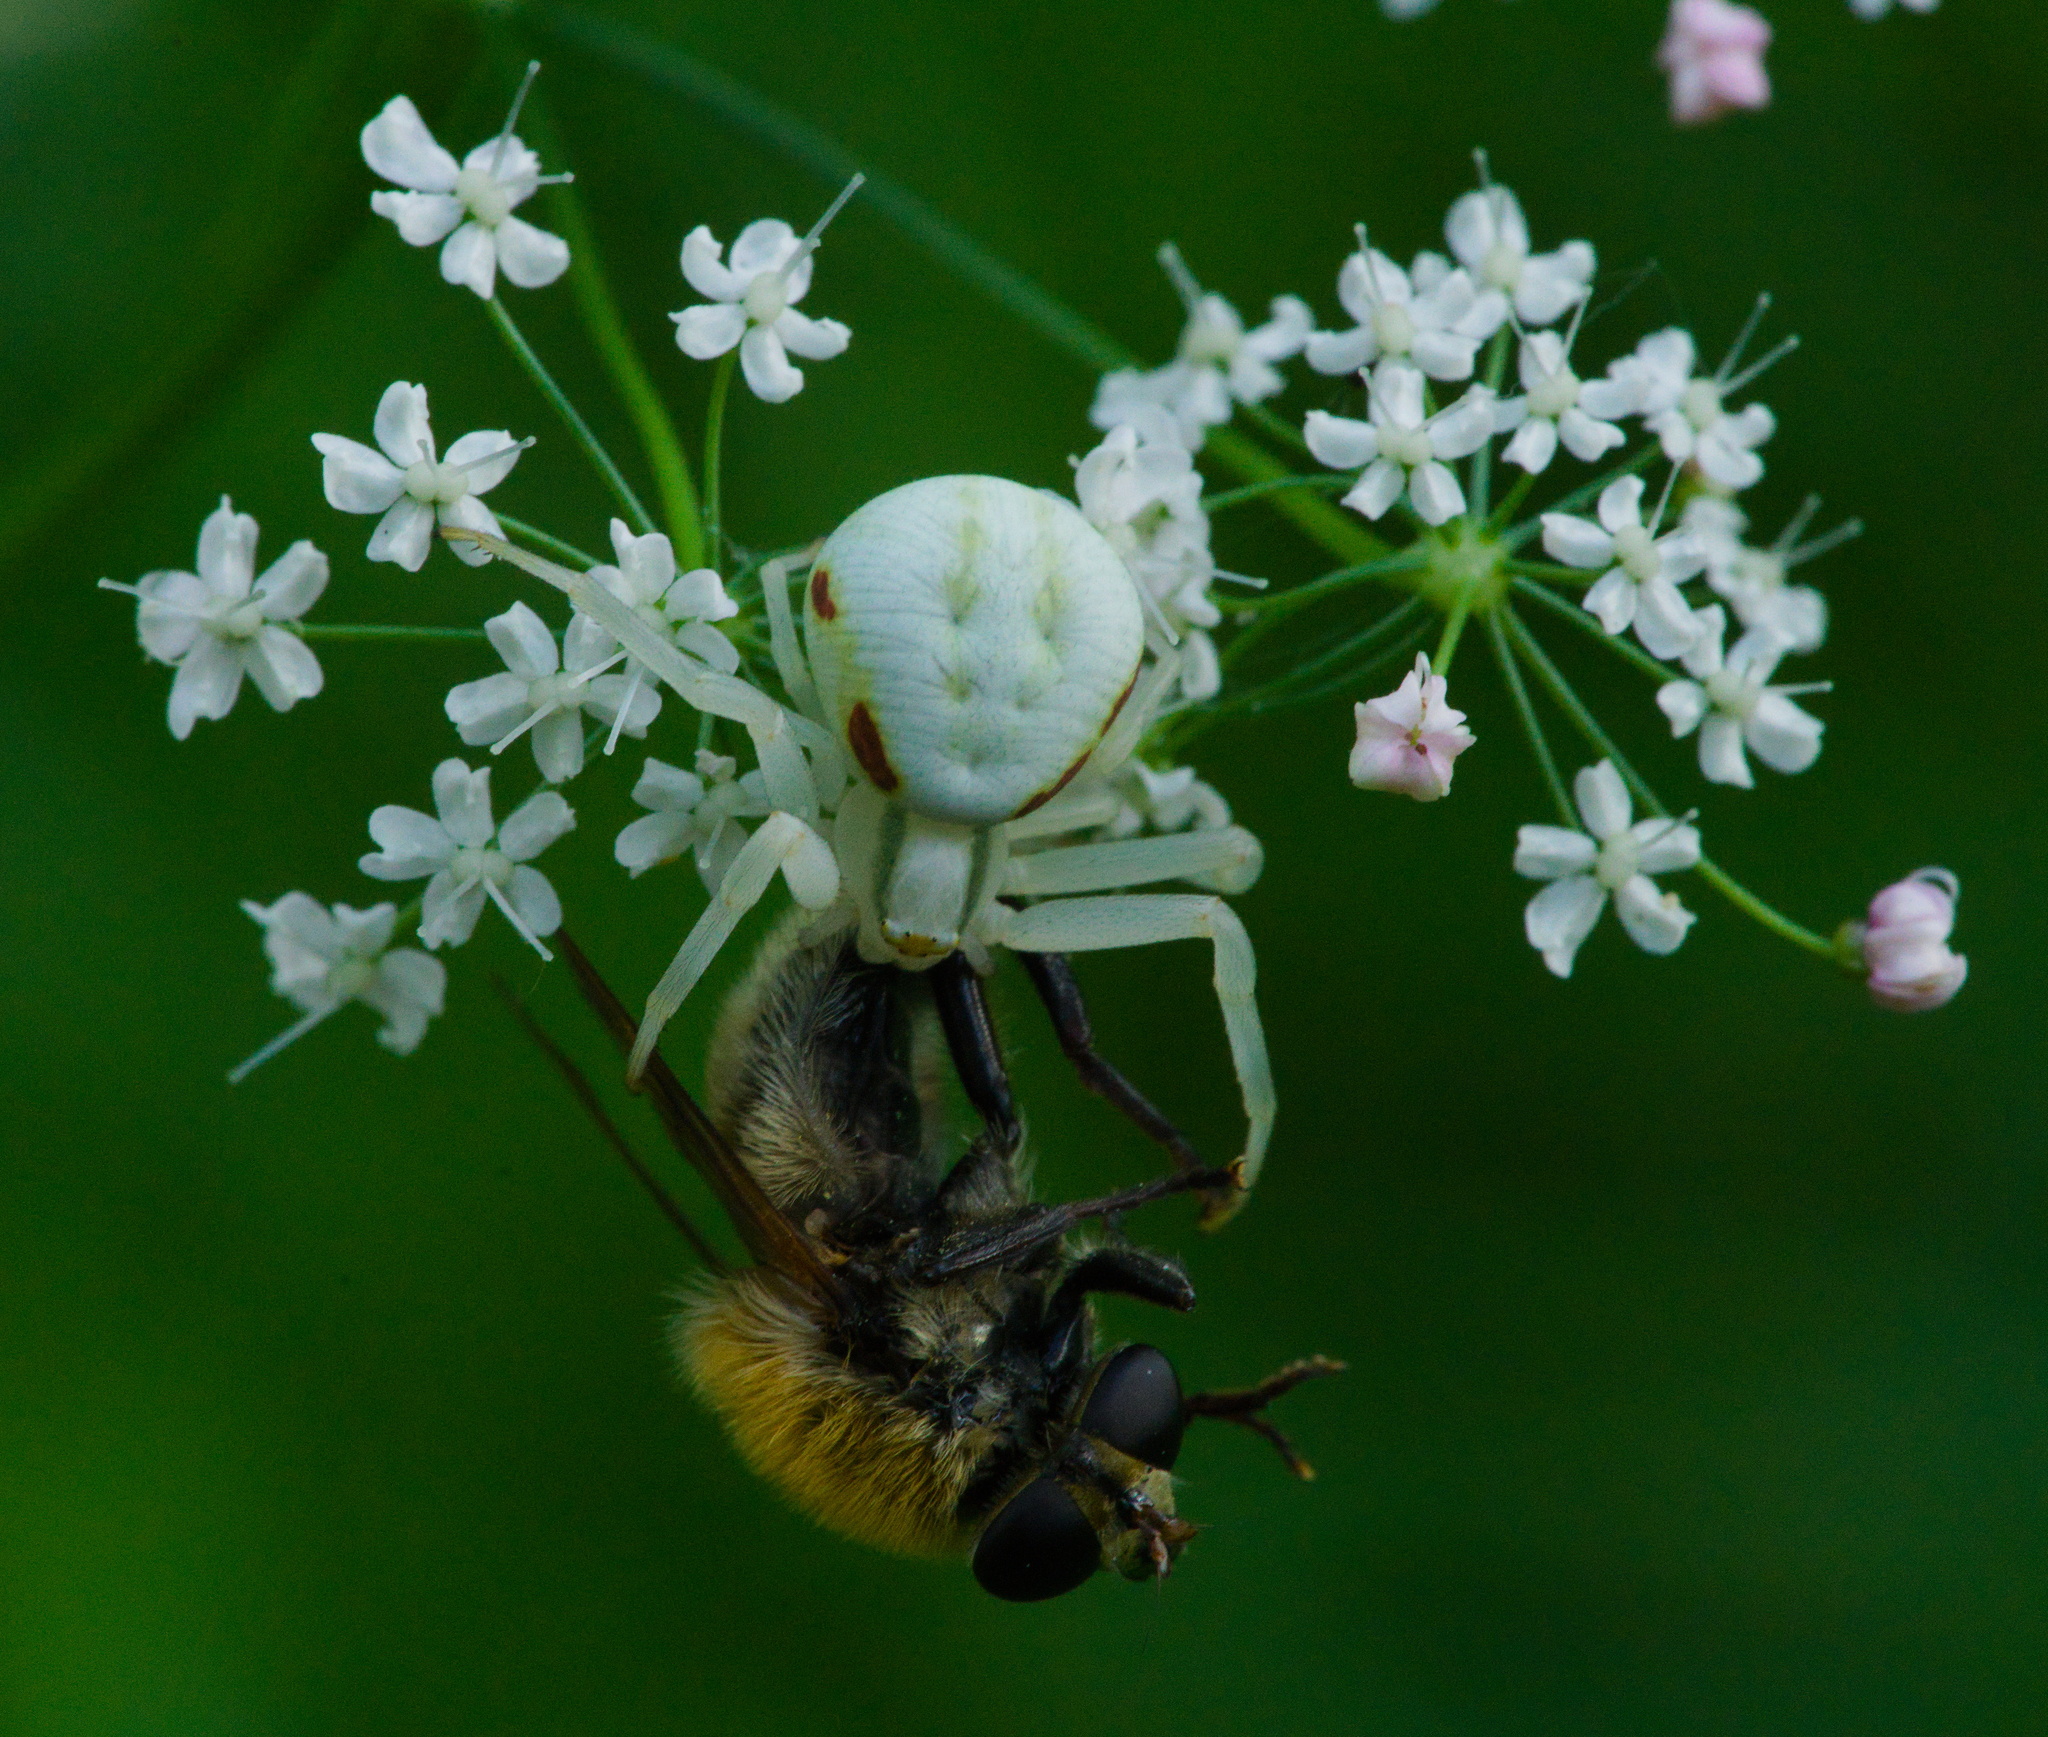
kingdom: Animalia
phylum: Arthropoda
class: Arachnida
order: Araneae
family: Thomisidae
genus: Misumena
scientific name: Misumena vatia
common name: Goldenrod crab spider
